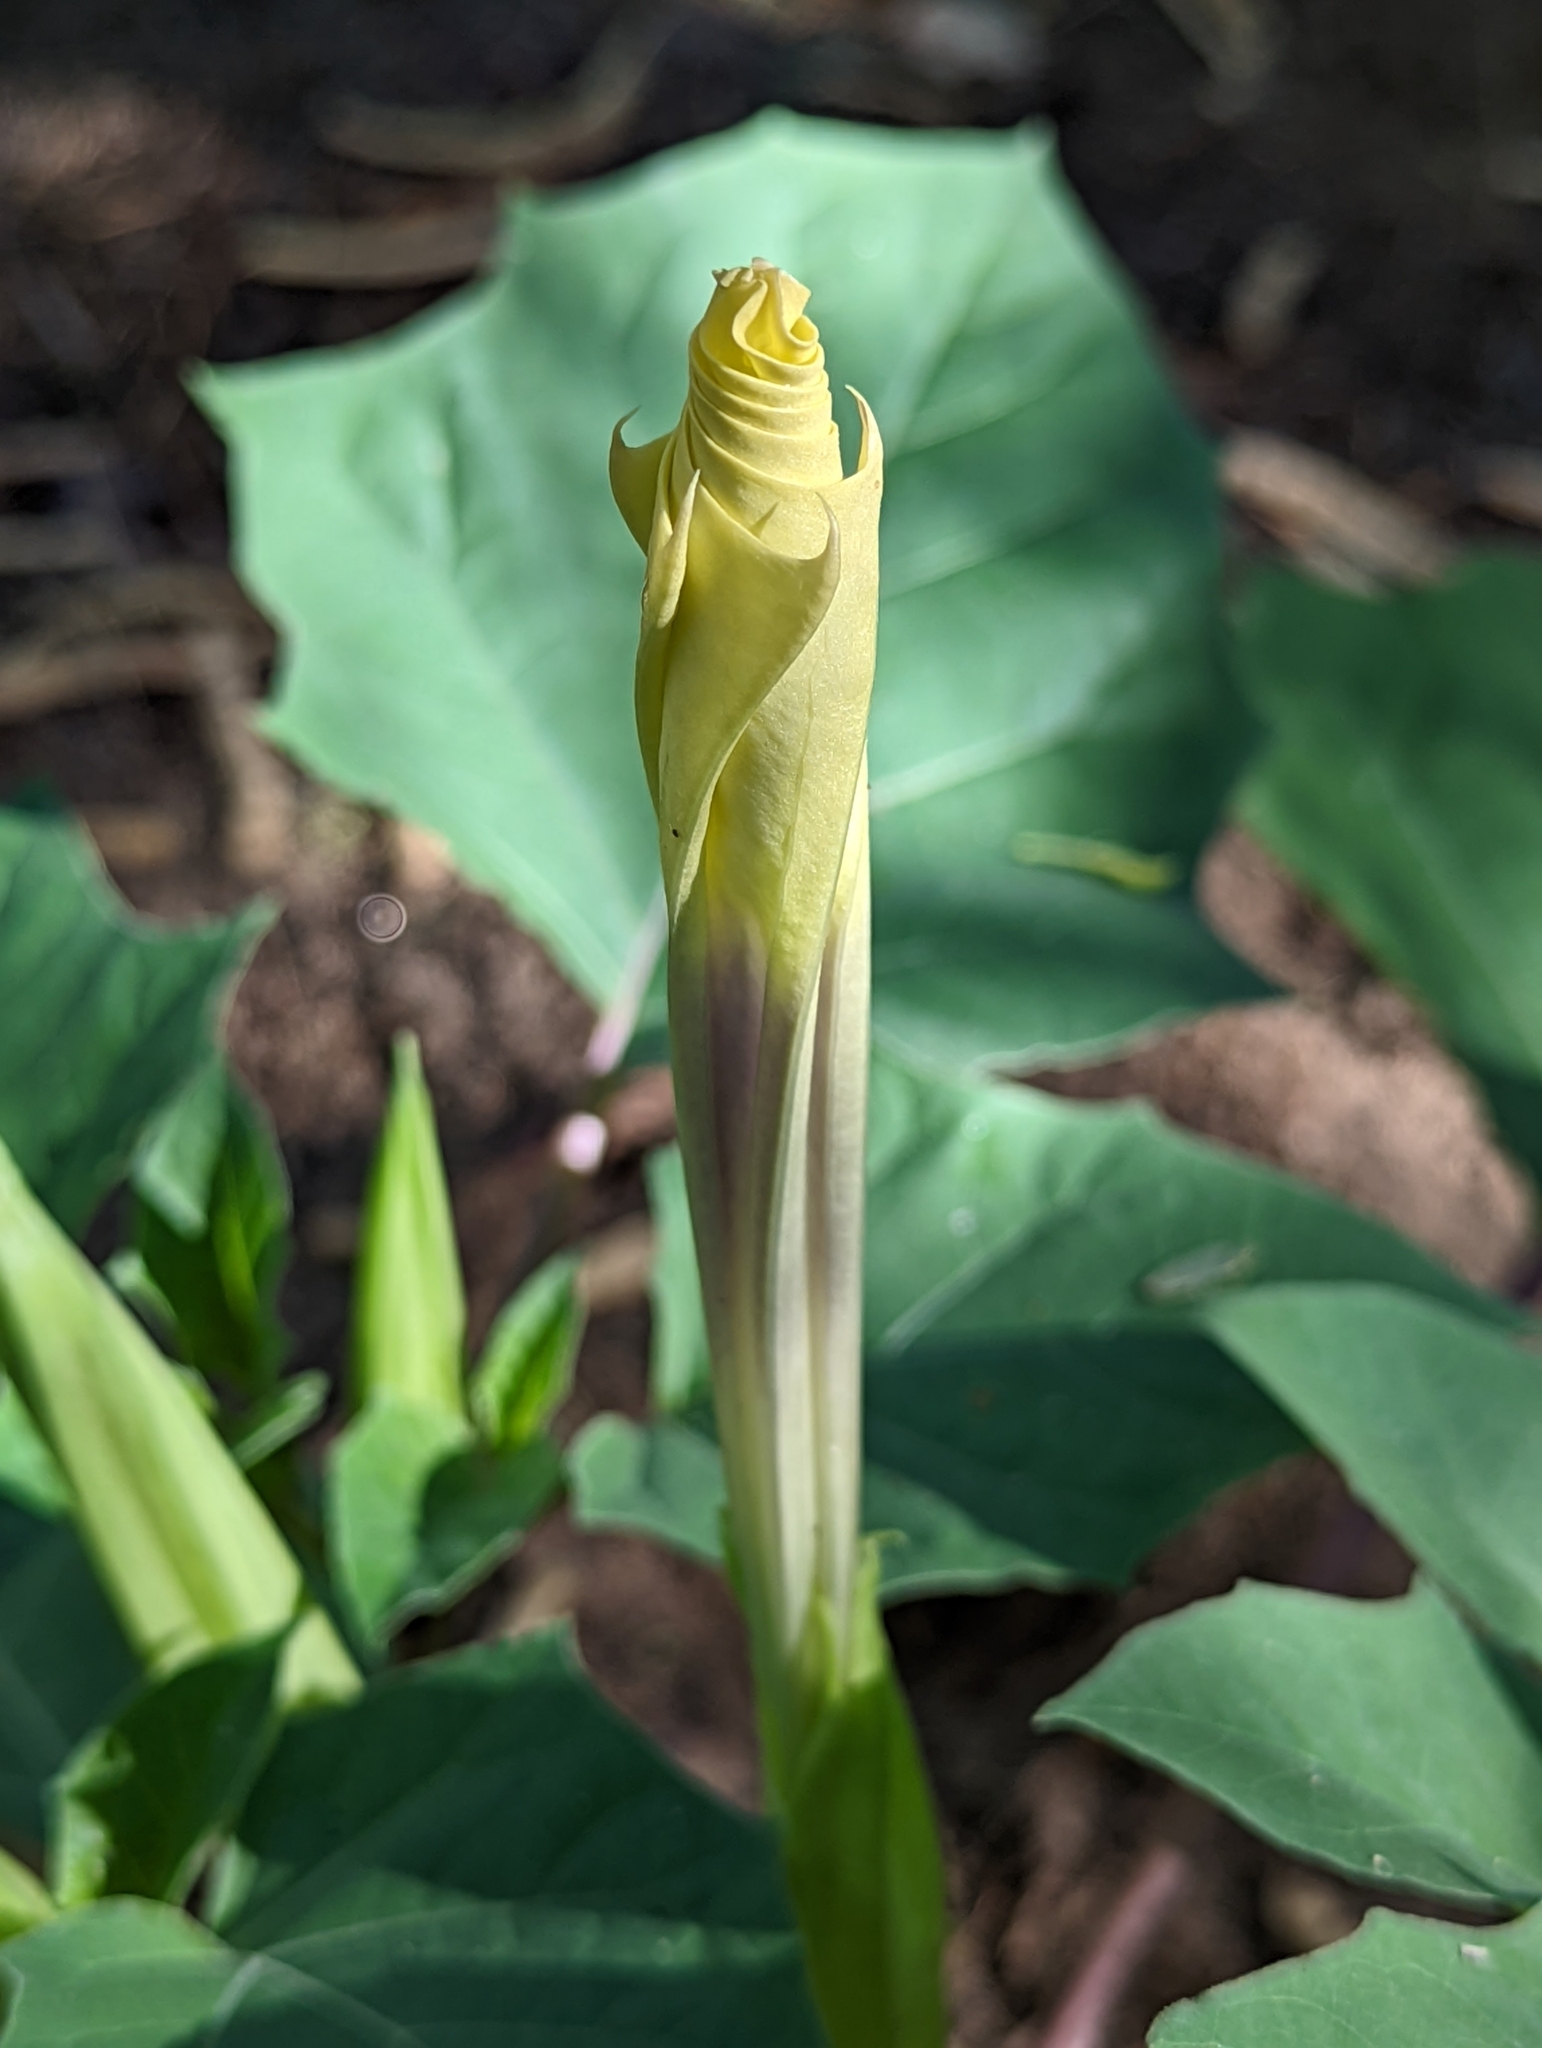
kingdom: Plantae
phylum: Tracheophyta
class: Magnoliopsida
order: Solanales
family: Solanaceae
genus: Datura
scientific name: Datura discolor
